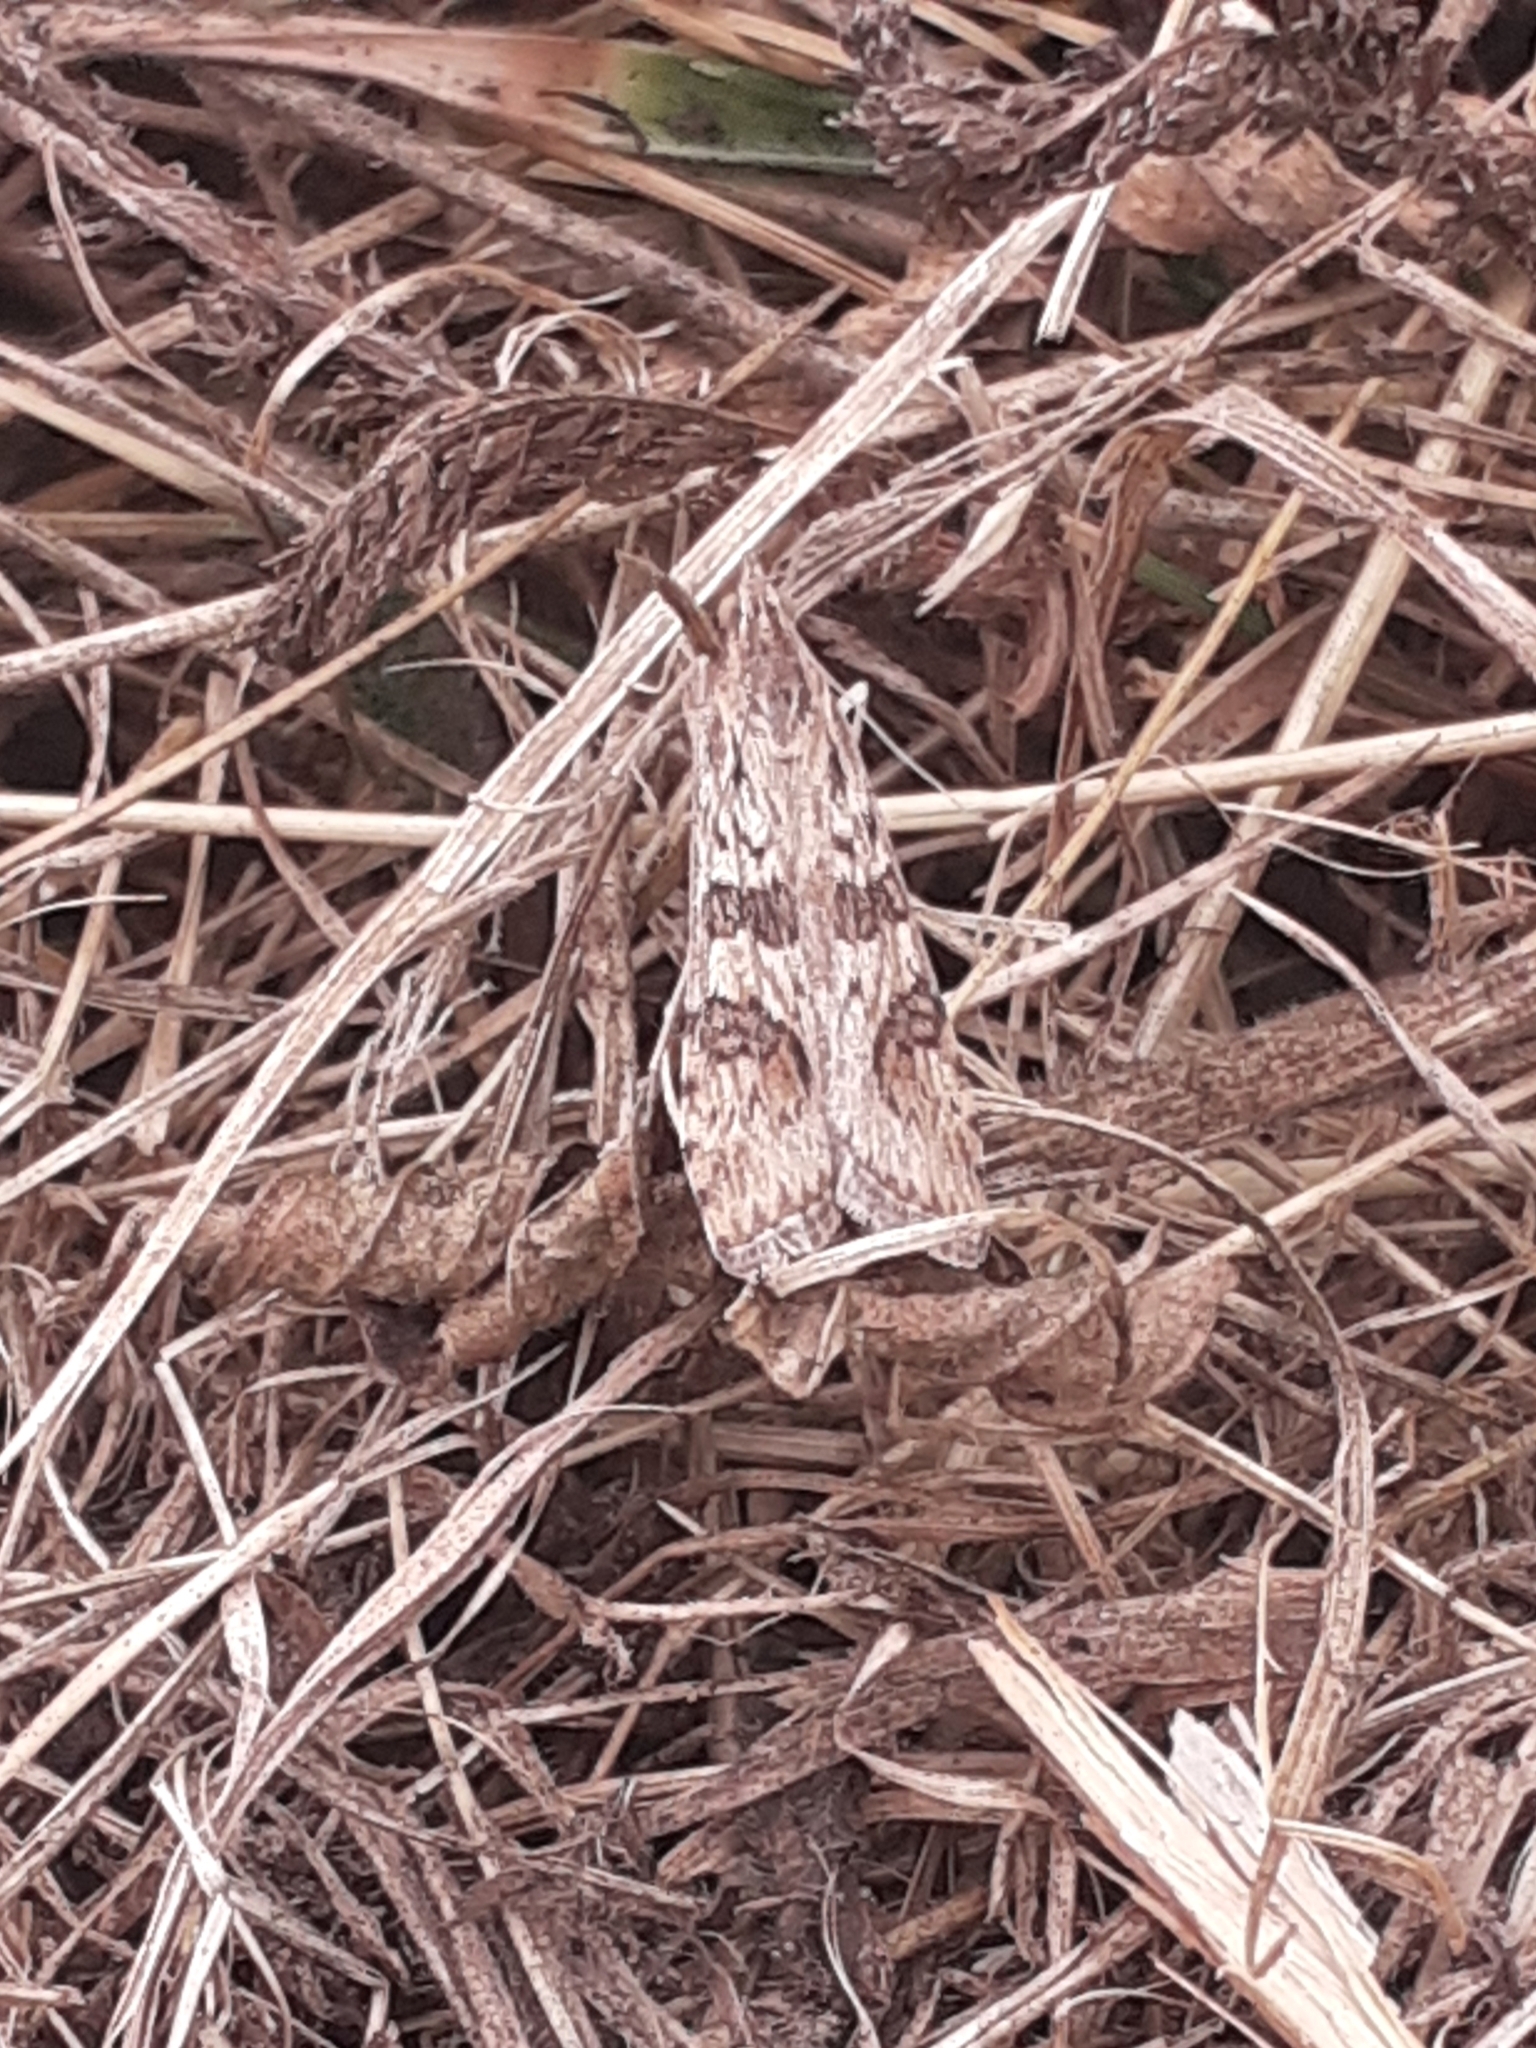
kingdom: Animalia
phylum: Arthropoda
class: Insecta
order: Lepidoptera
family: Crambidae
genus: Nomophila
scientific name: Nomophila noctuella
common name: Rush veneer
